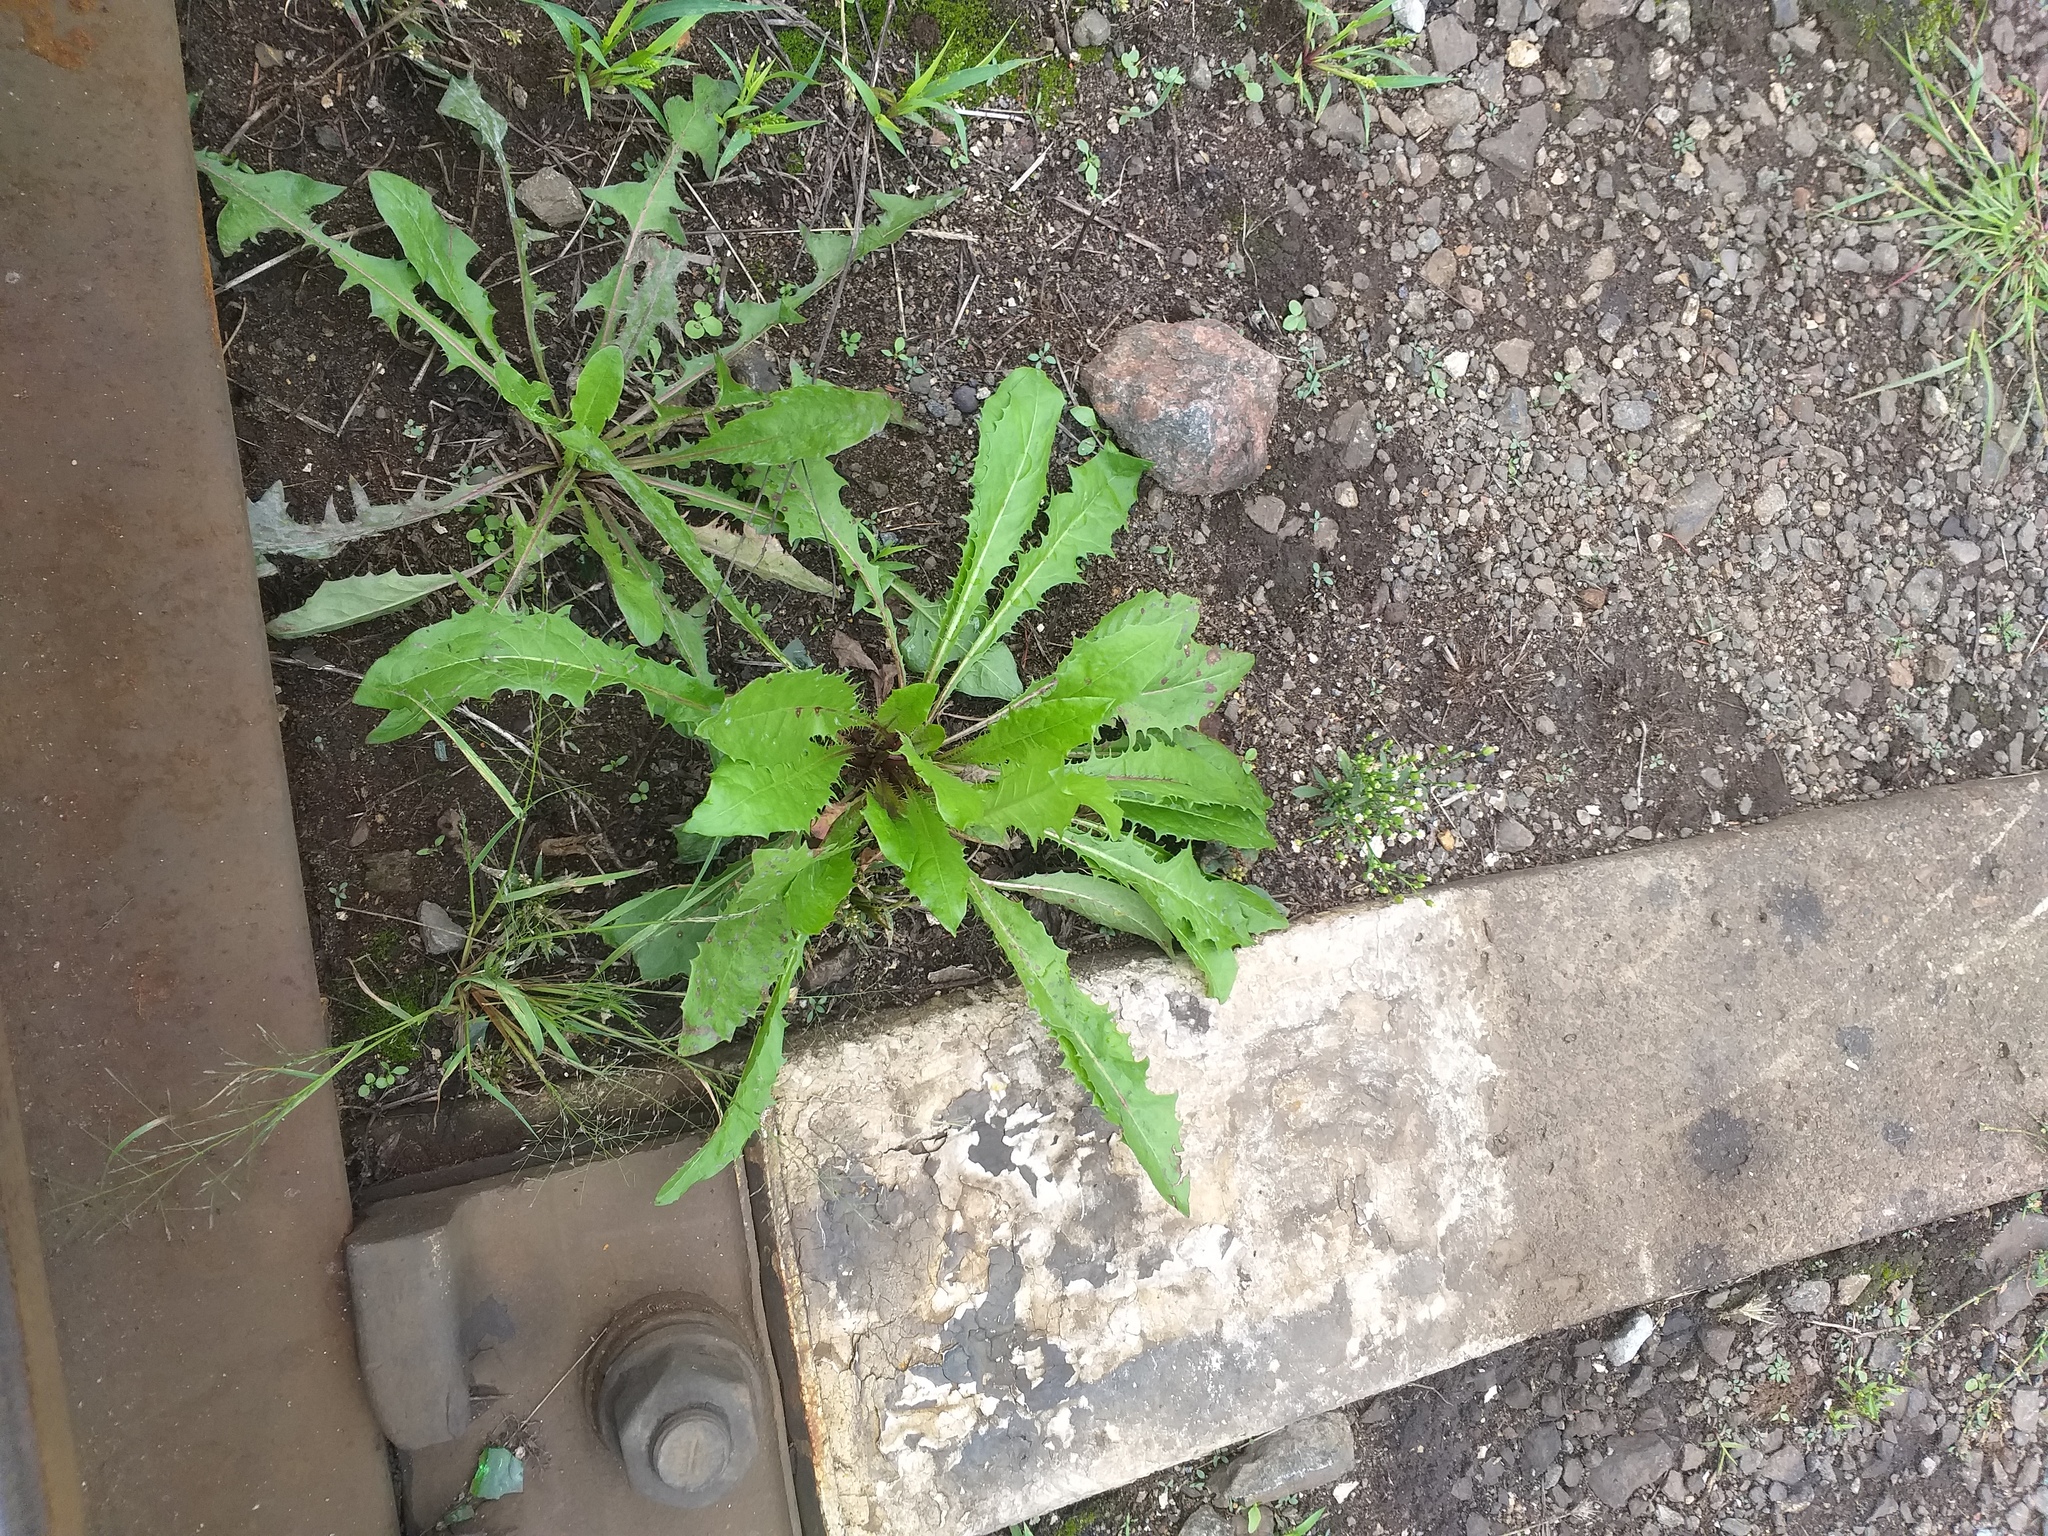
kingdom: Plantae
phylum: Tracheophyta
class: Magnoliopsida
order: Asterales
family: Asteraceae
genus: Taraxacum
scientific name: Taraxacum officinale
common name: Common dandelion
